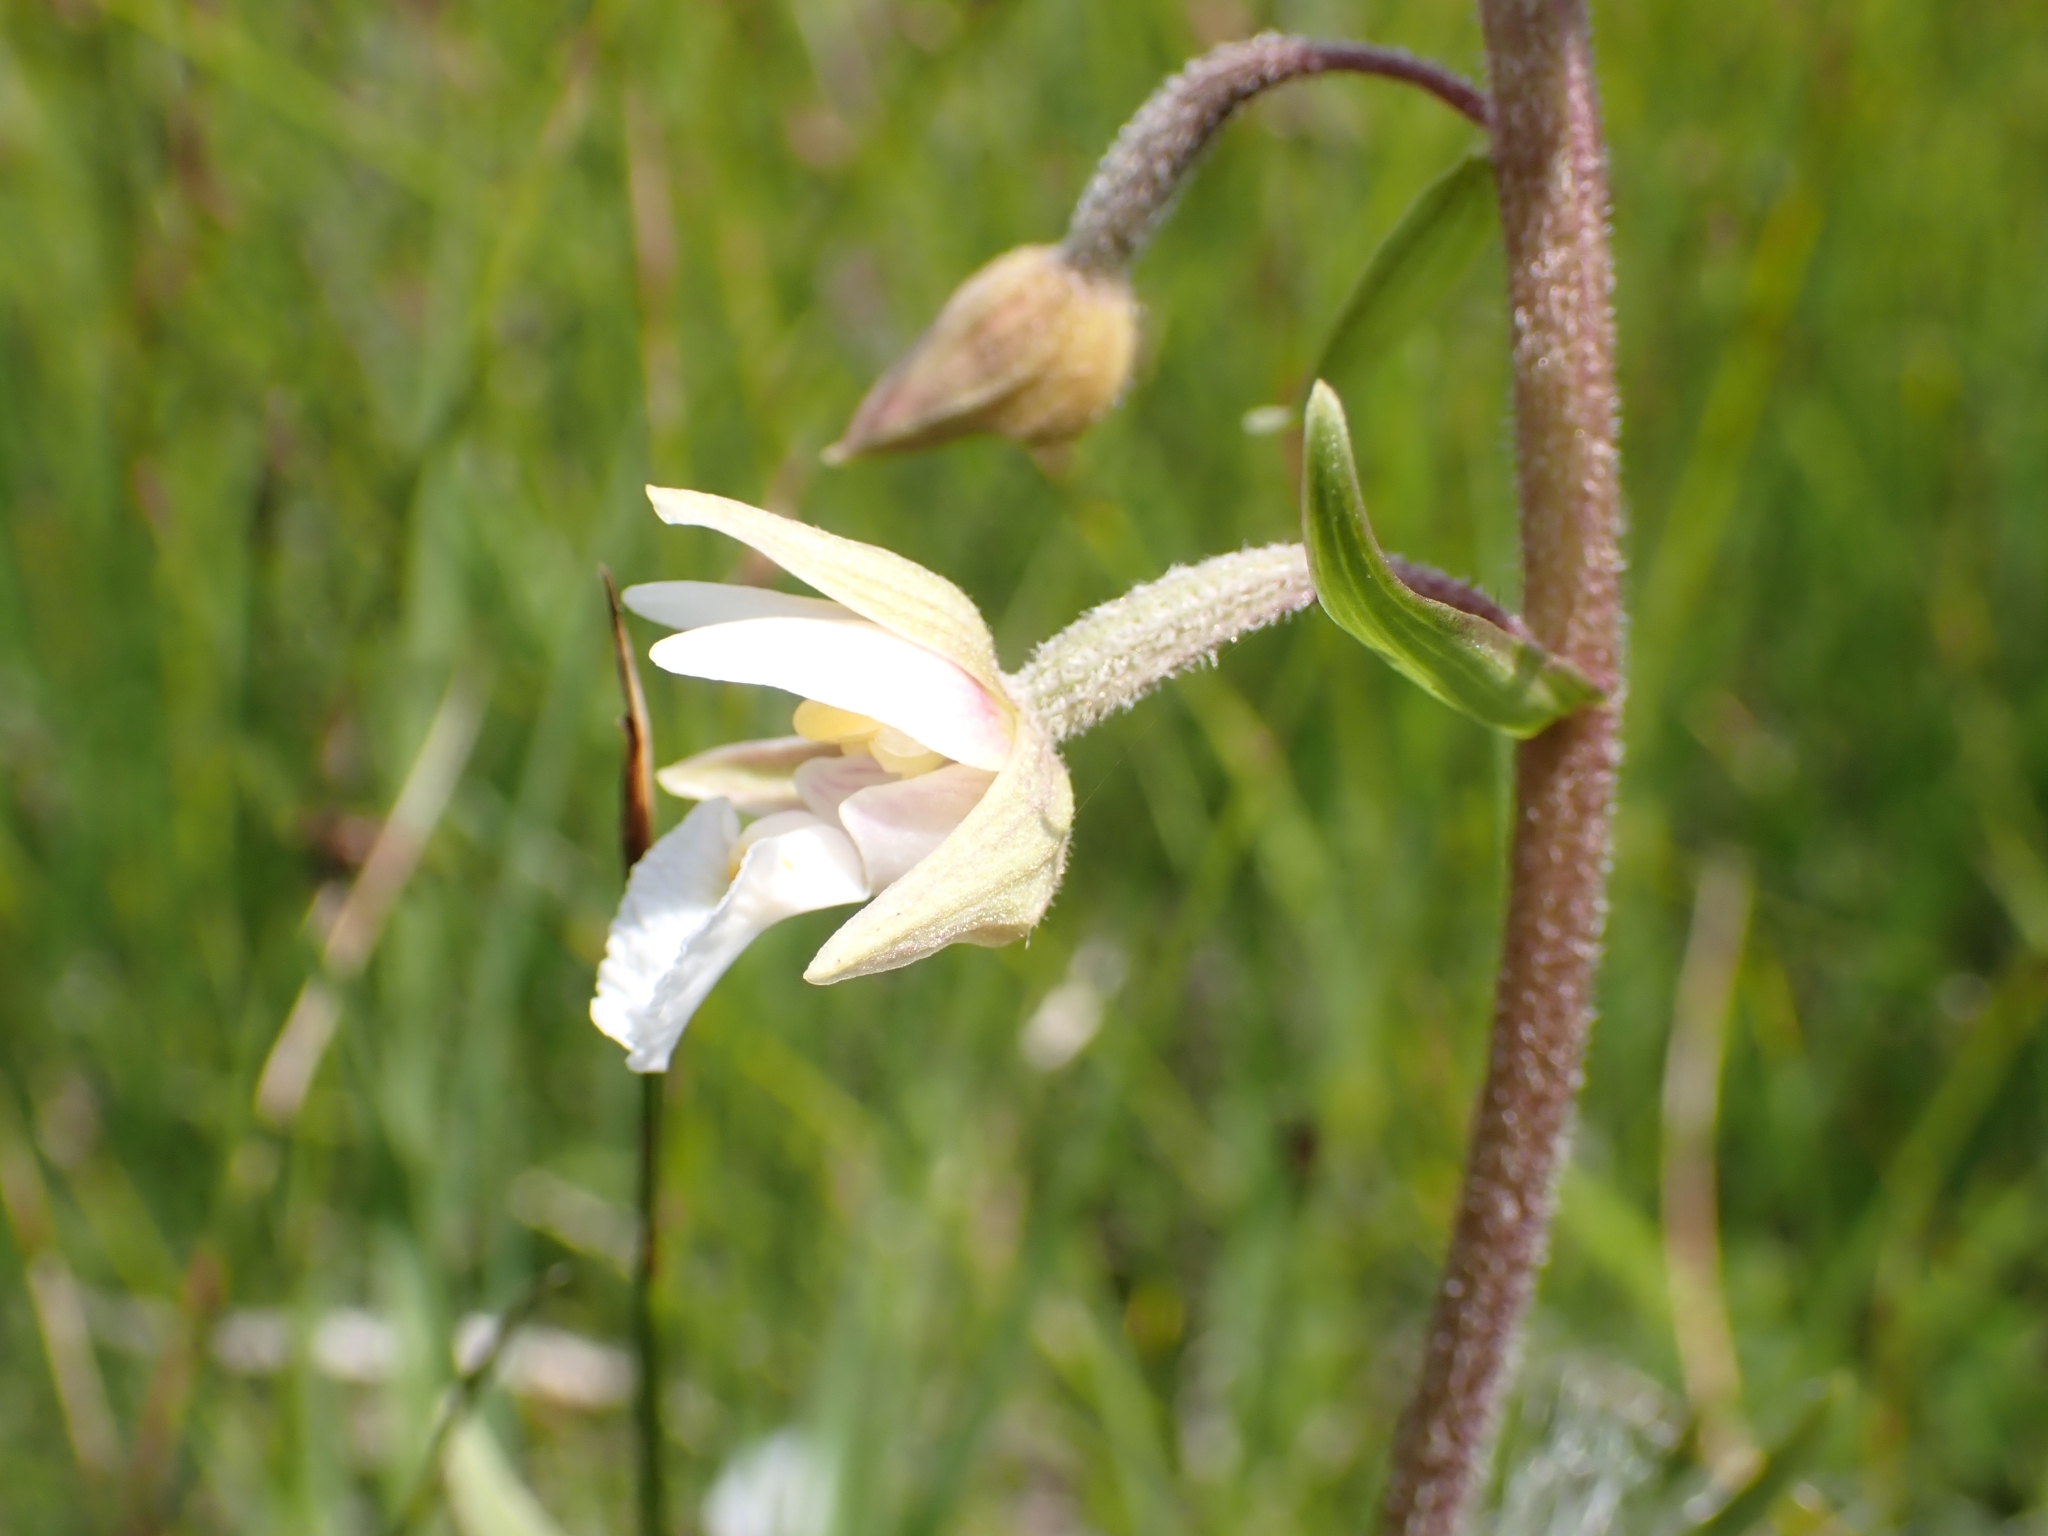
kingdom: Plantae
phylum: Tracheophyta
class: Liliopsida
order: Asparagales
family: Orchidaceae
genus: Epipactis
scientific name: Epipactis palustris
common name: Marsh helleborine
